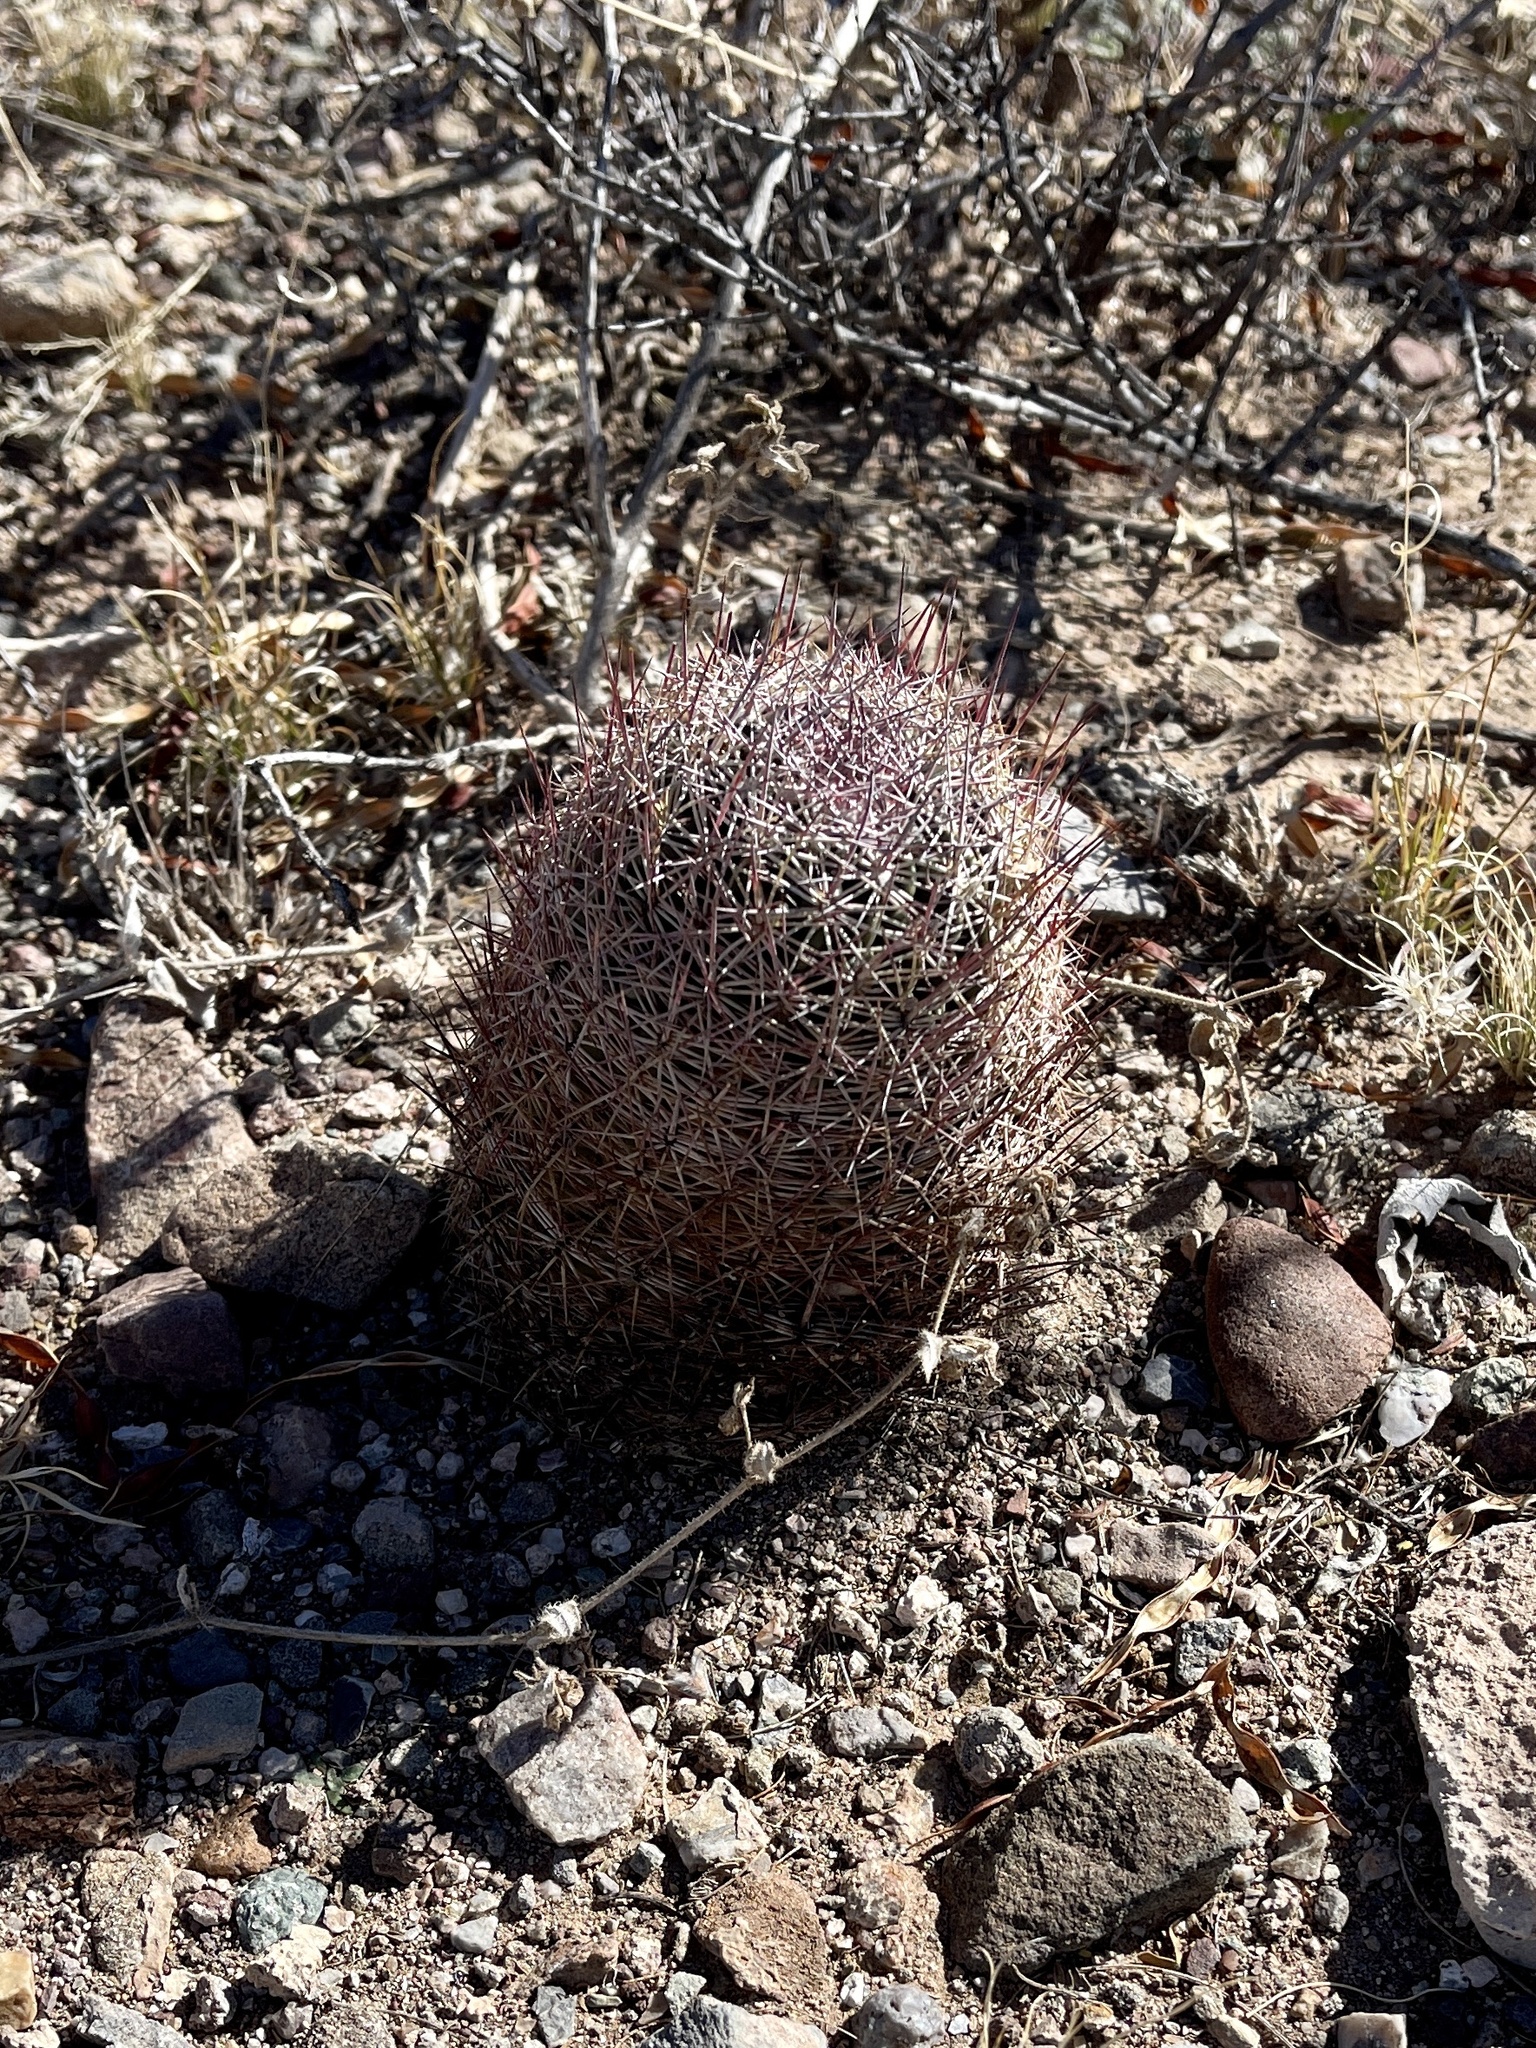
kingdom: Plantae
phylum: Tracheophyta
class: Magnoliopsida
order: Caryophyllales
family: Cactaceae
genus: Sclerocactus
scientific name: Sclerocactus johnsonii
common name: Eight-spine fishhook cactus
